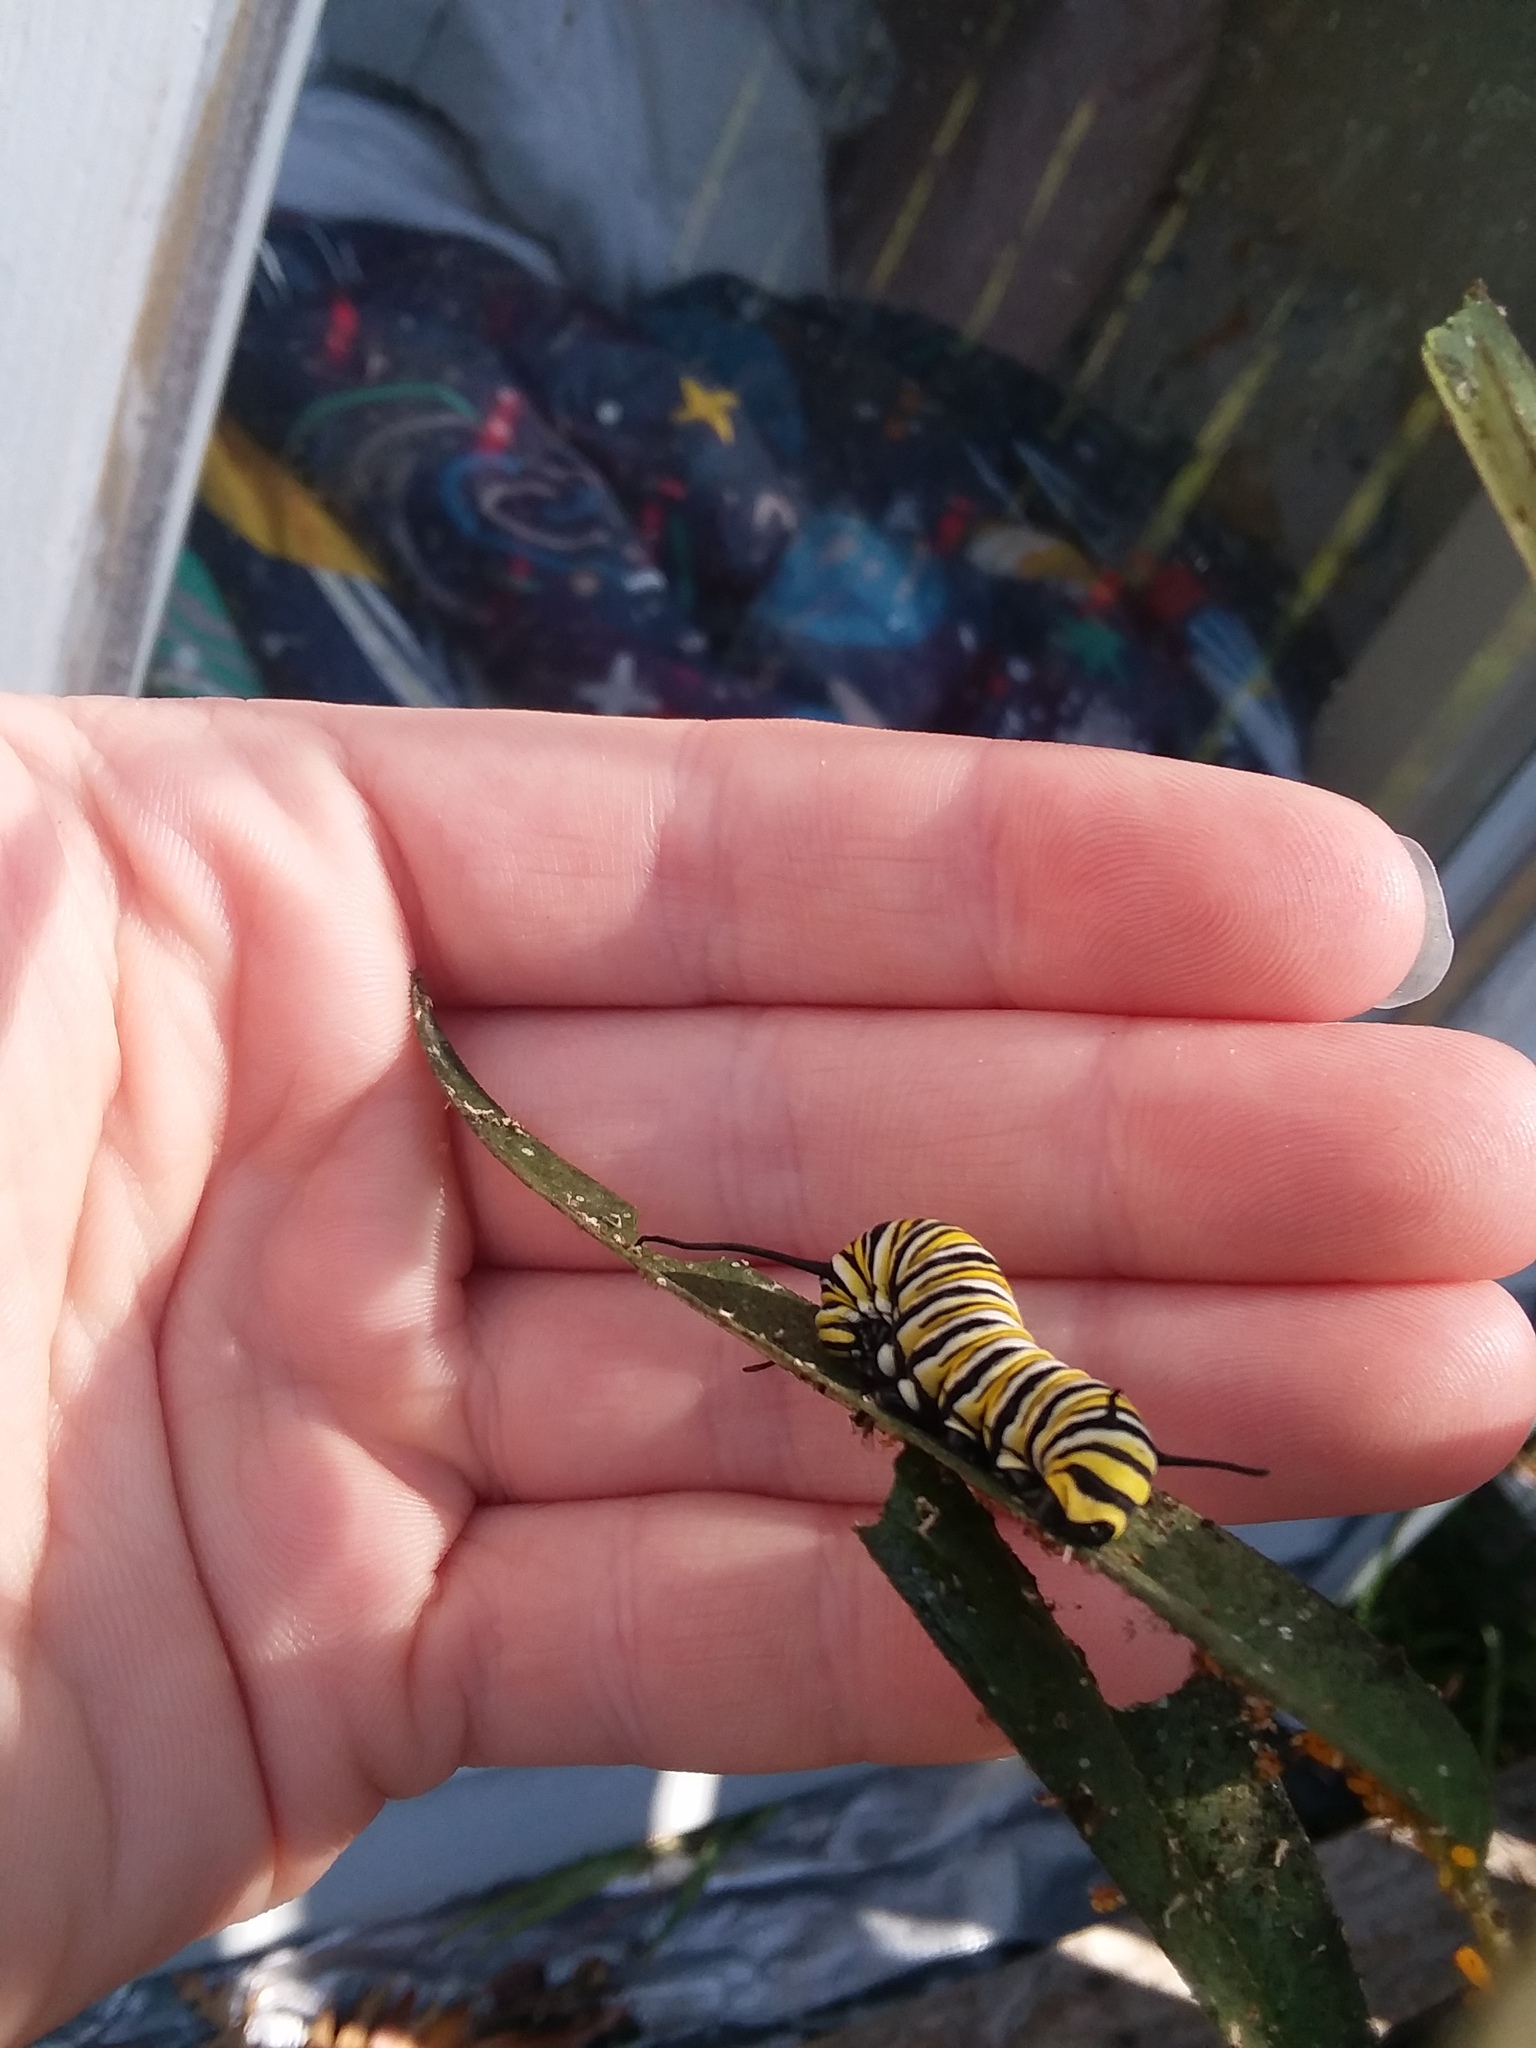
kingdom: Animalia
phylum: Arthropoda
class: Insecta
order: Lepidoptera
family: Nymphalidae
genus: Danaus
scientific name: Danaus plexippus
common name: Monarch
